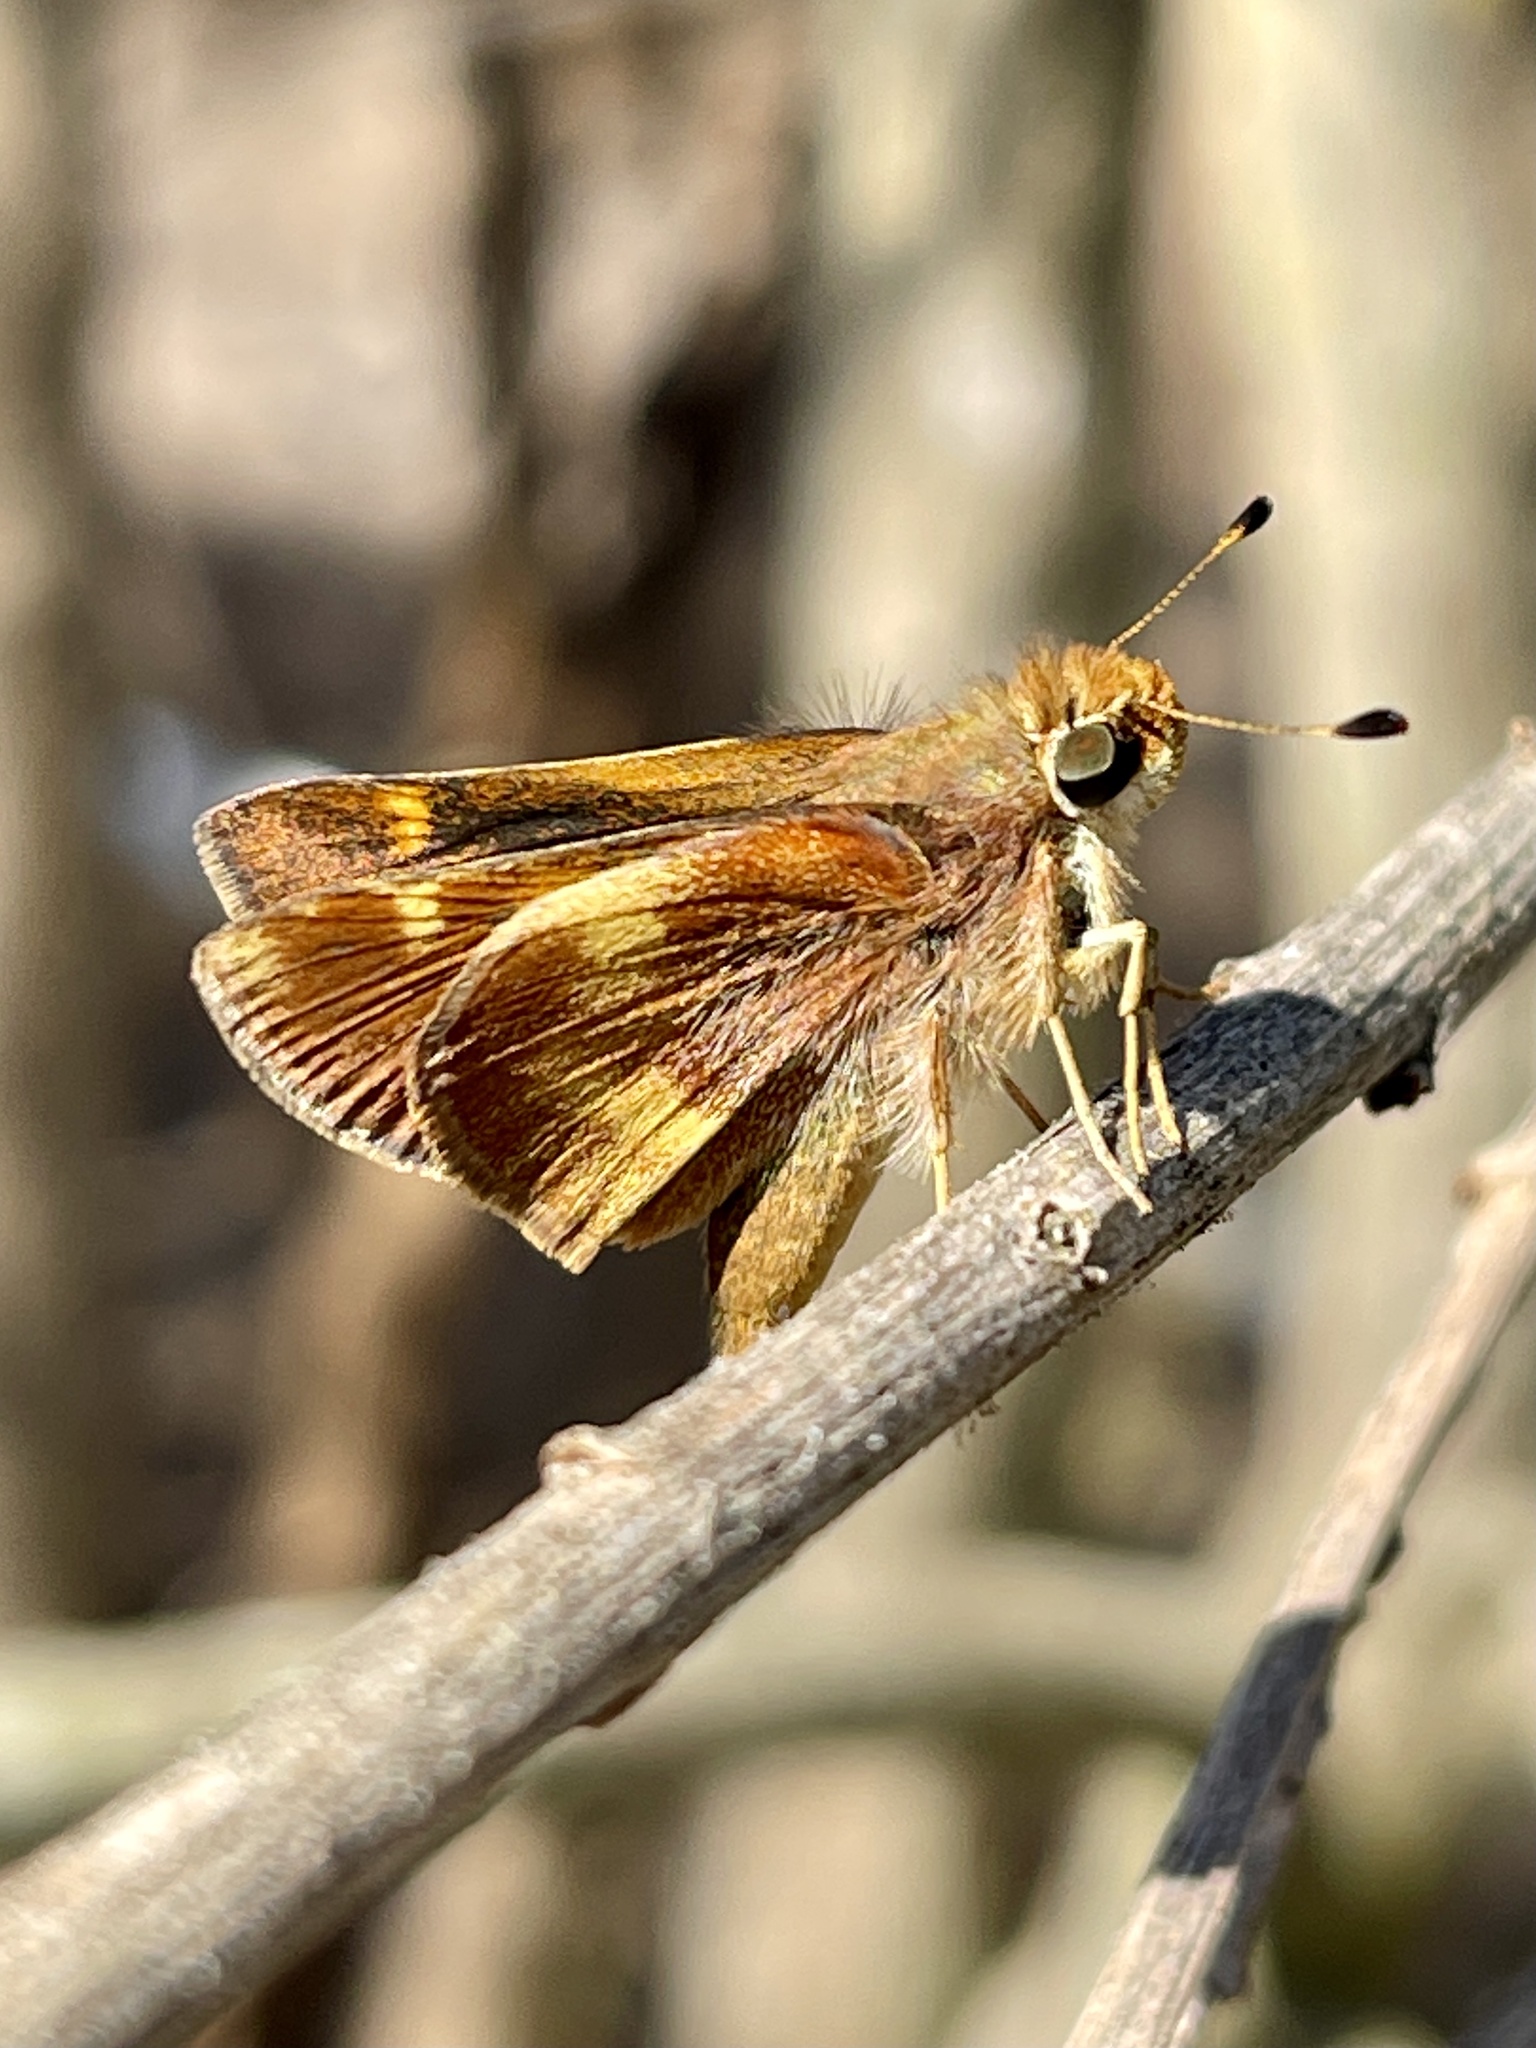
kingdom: Animalia
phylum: Arthropoda
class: Insecta
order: Lepidoptera
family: Hesperiidae
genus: Lon
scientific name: Lon melane
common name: Umber skipper
